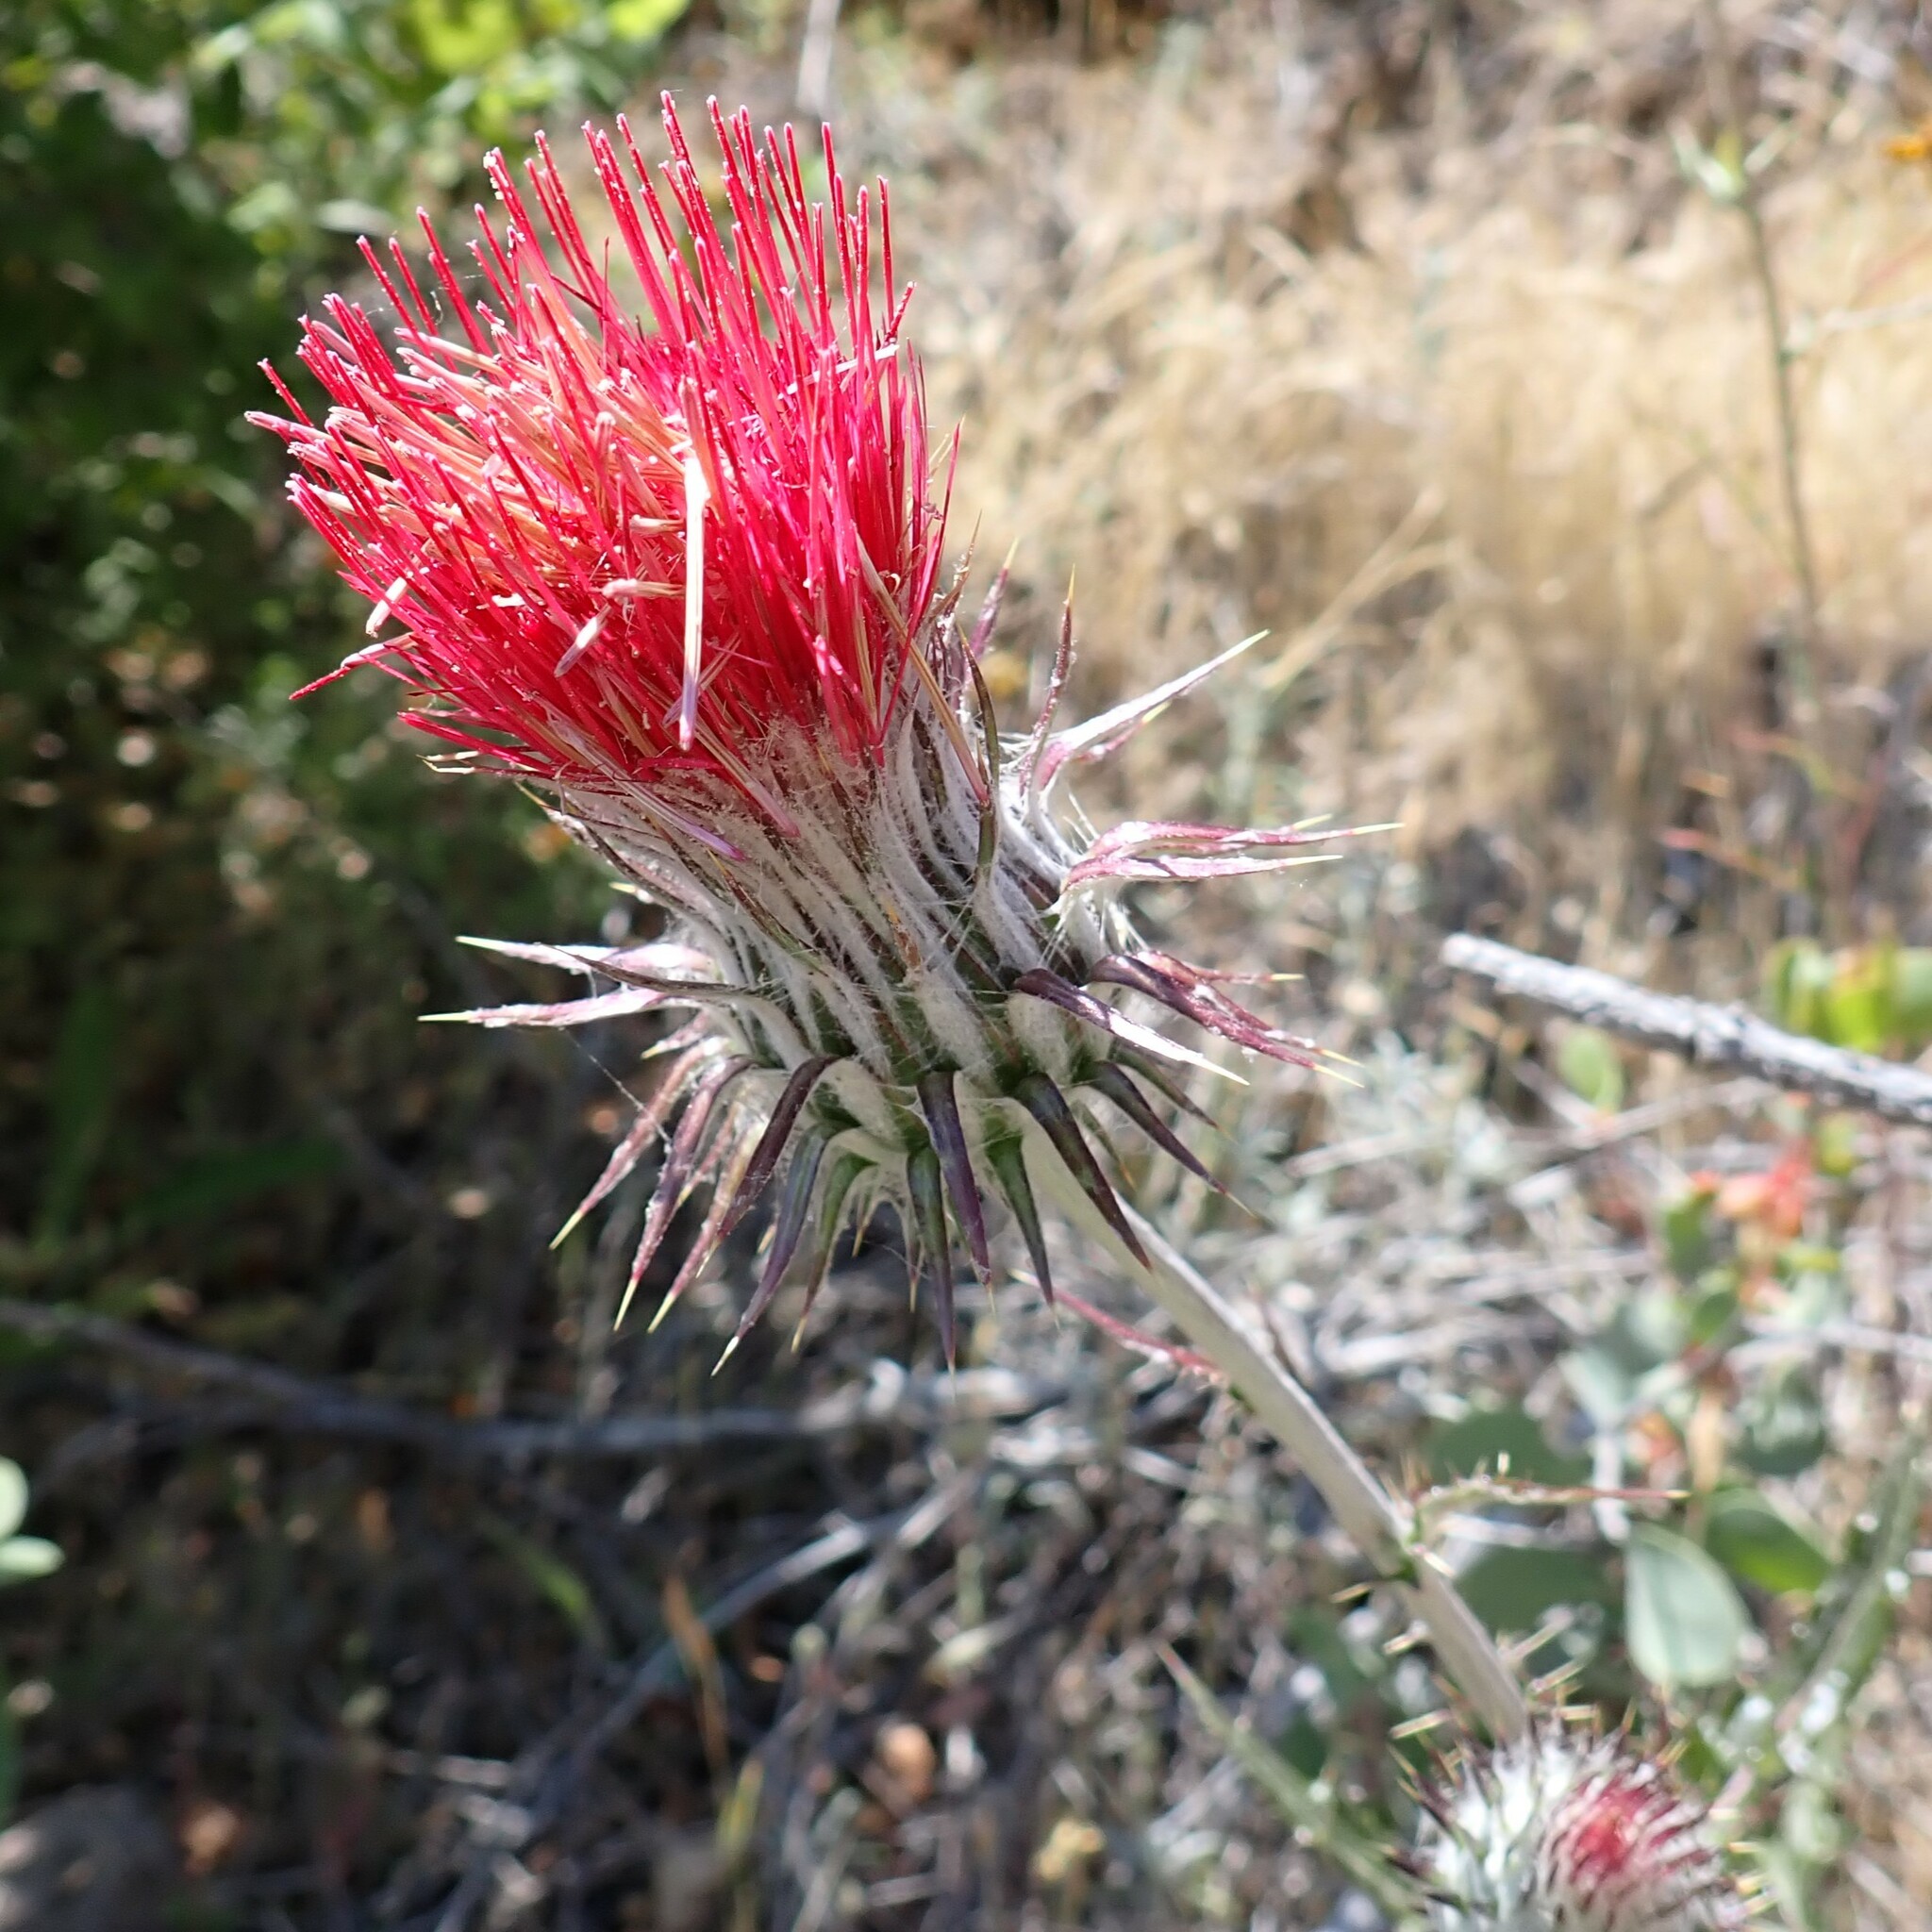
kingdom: Plantae
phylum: Tracheophyta
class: Magnoliopsida
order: Asterales
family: Asteraceae
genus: Cirsium
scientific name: Cirsium occidentale
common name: Western thistle
